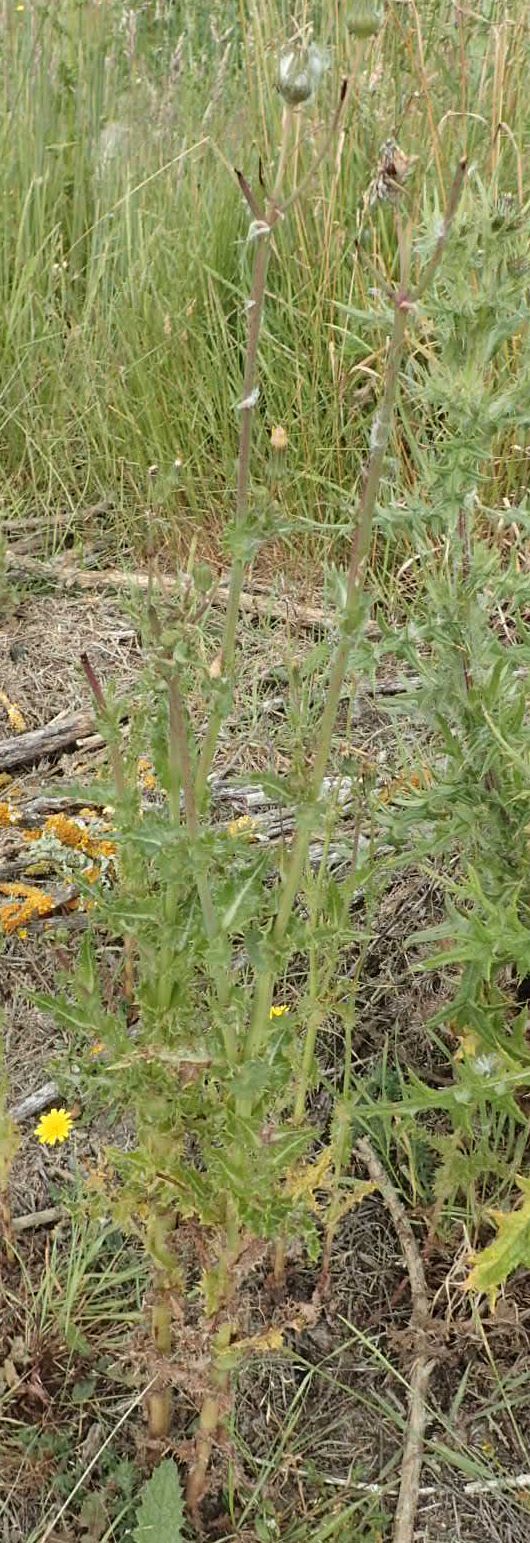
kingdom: Plantae
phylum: Tracheophyta
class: Magnoliopsida
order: Asterales
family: Asteraceae
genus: Sonchus
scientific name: Sonchus asper
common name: Prickly sow-thistle
